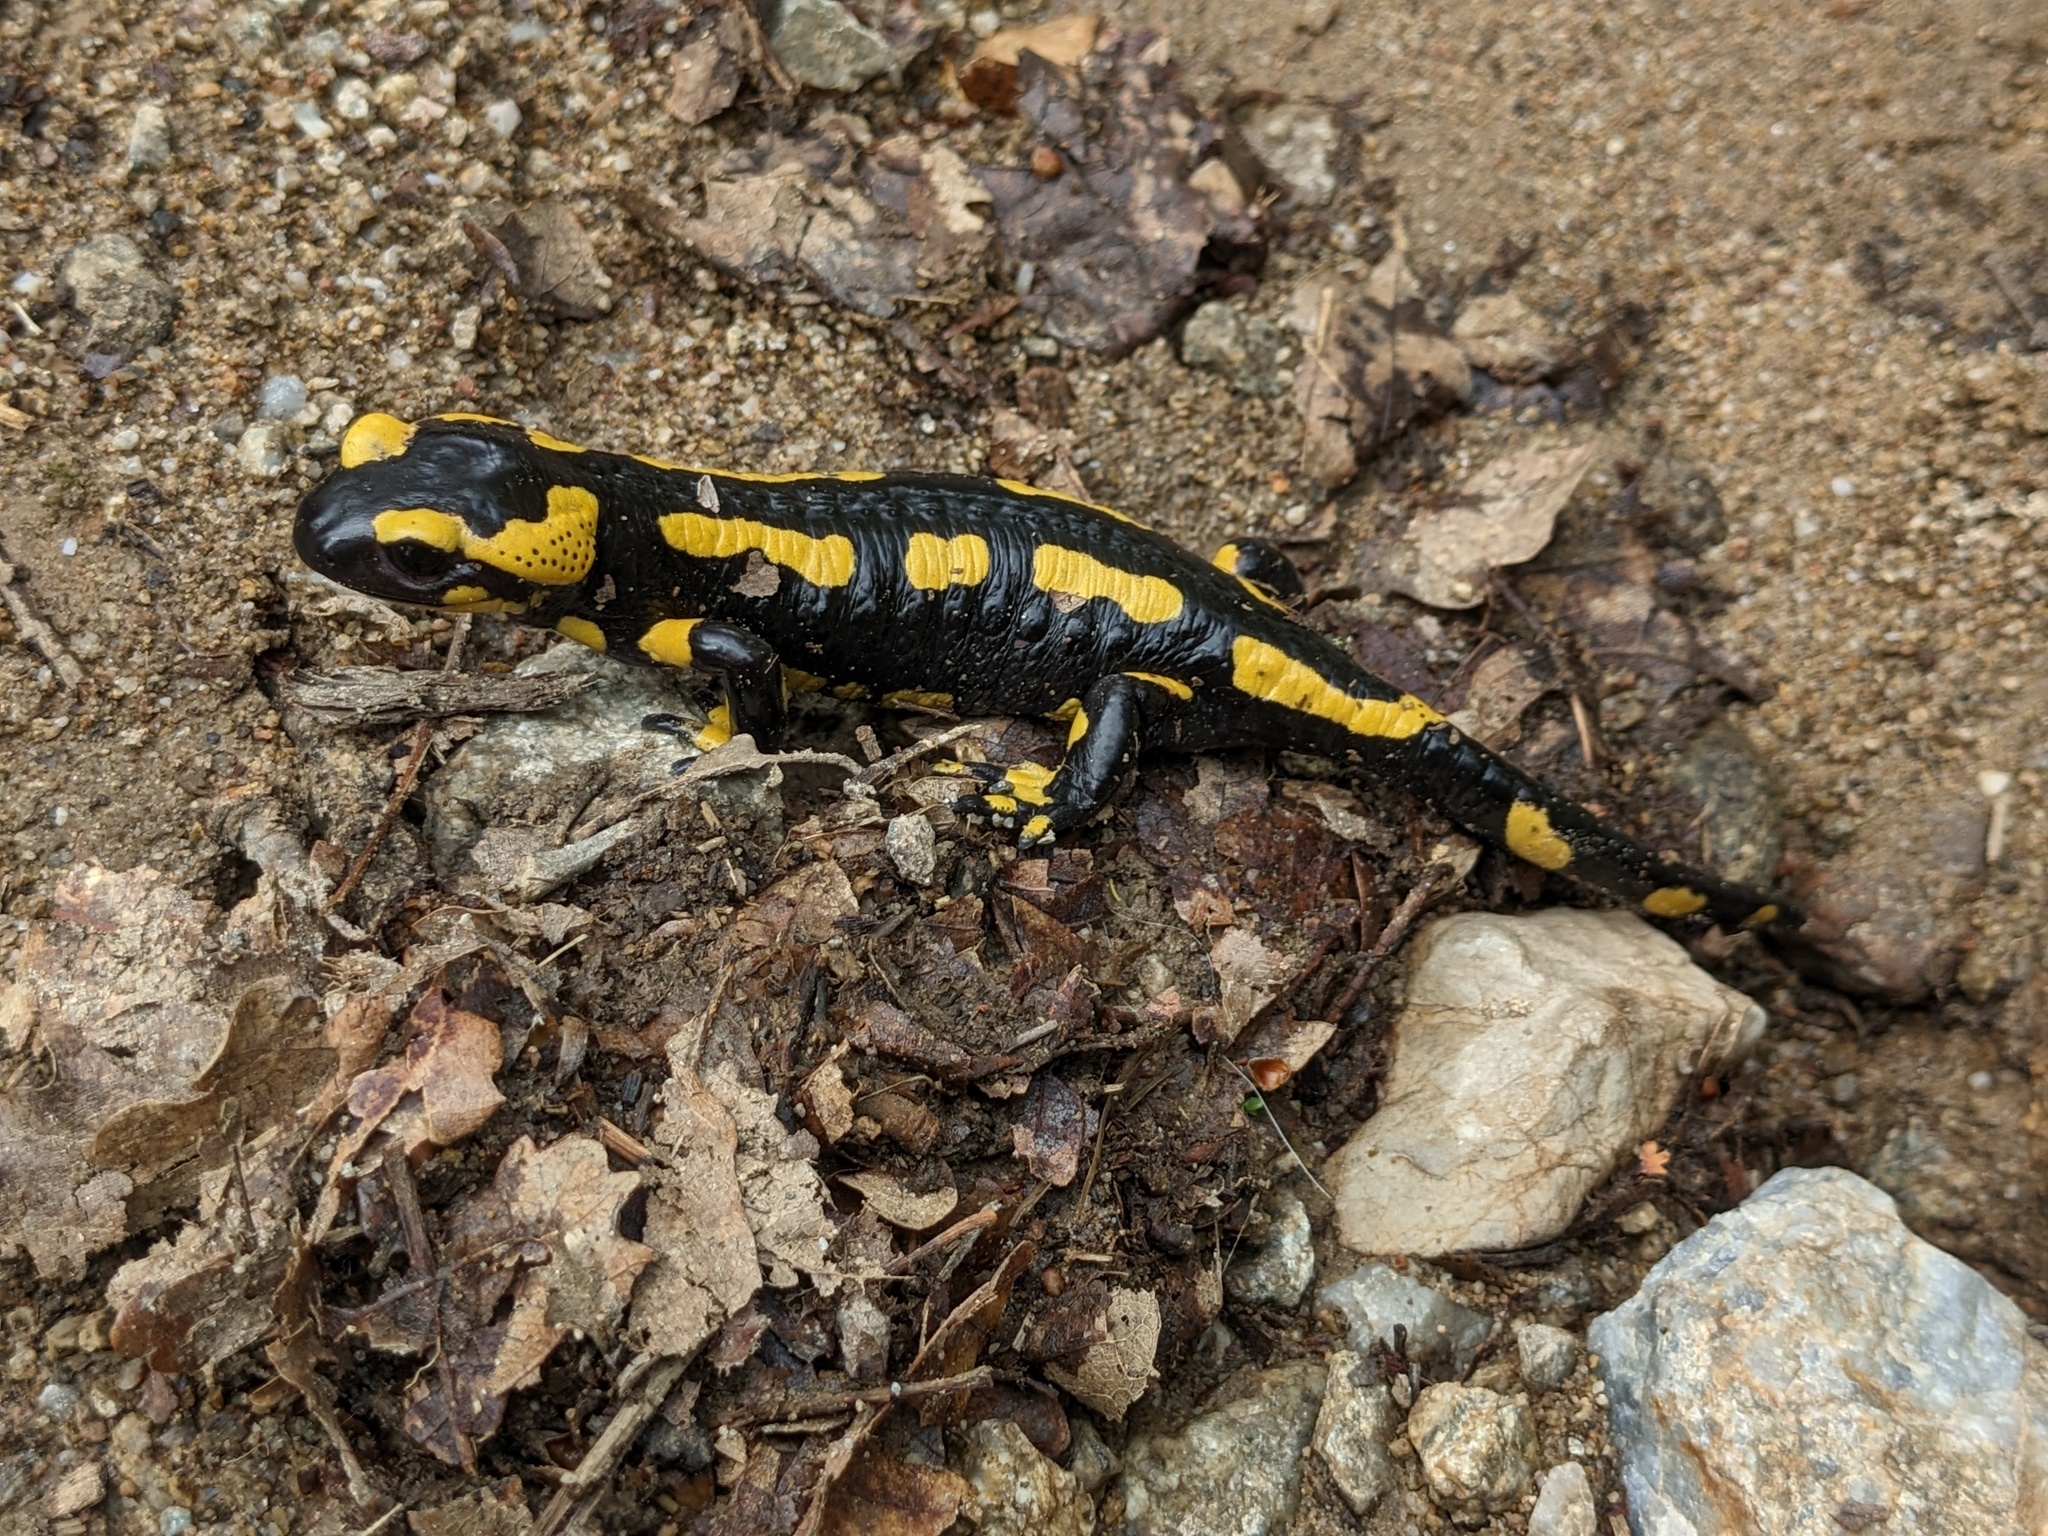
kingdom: Animalia
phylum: Chordata
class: Amphibia
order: Caudata
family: Salamandridae
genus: Salamandra
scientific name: Salamandra salamandra
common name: Fire salamander
